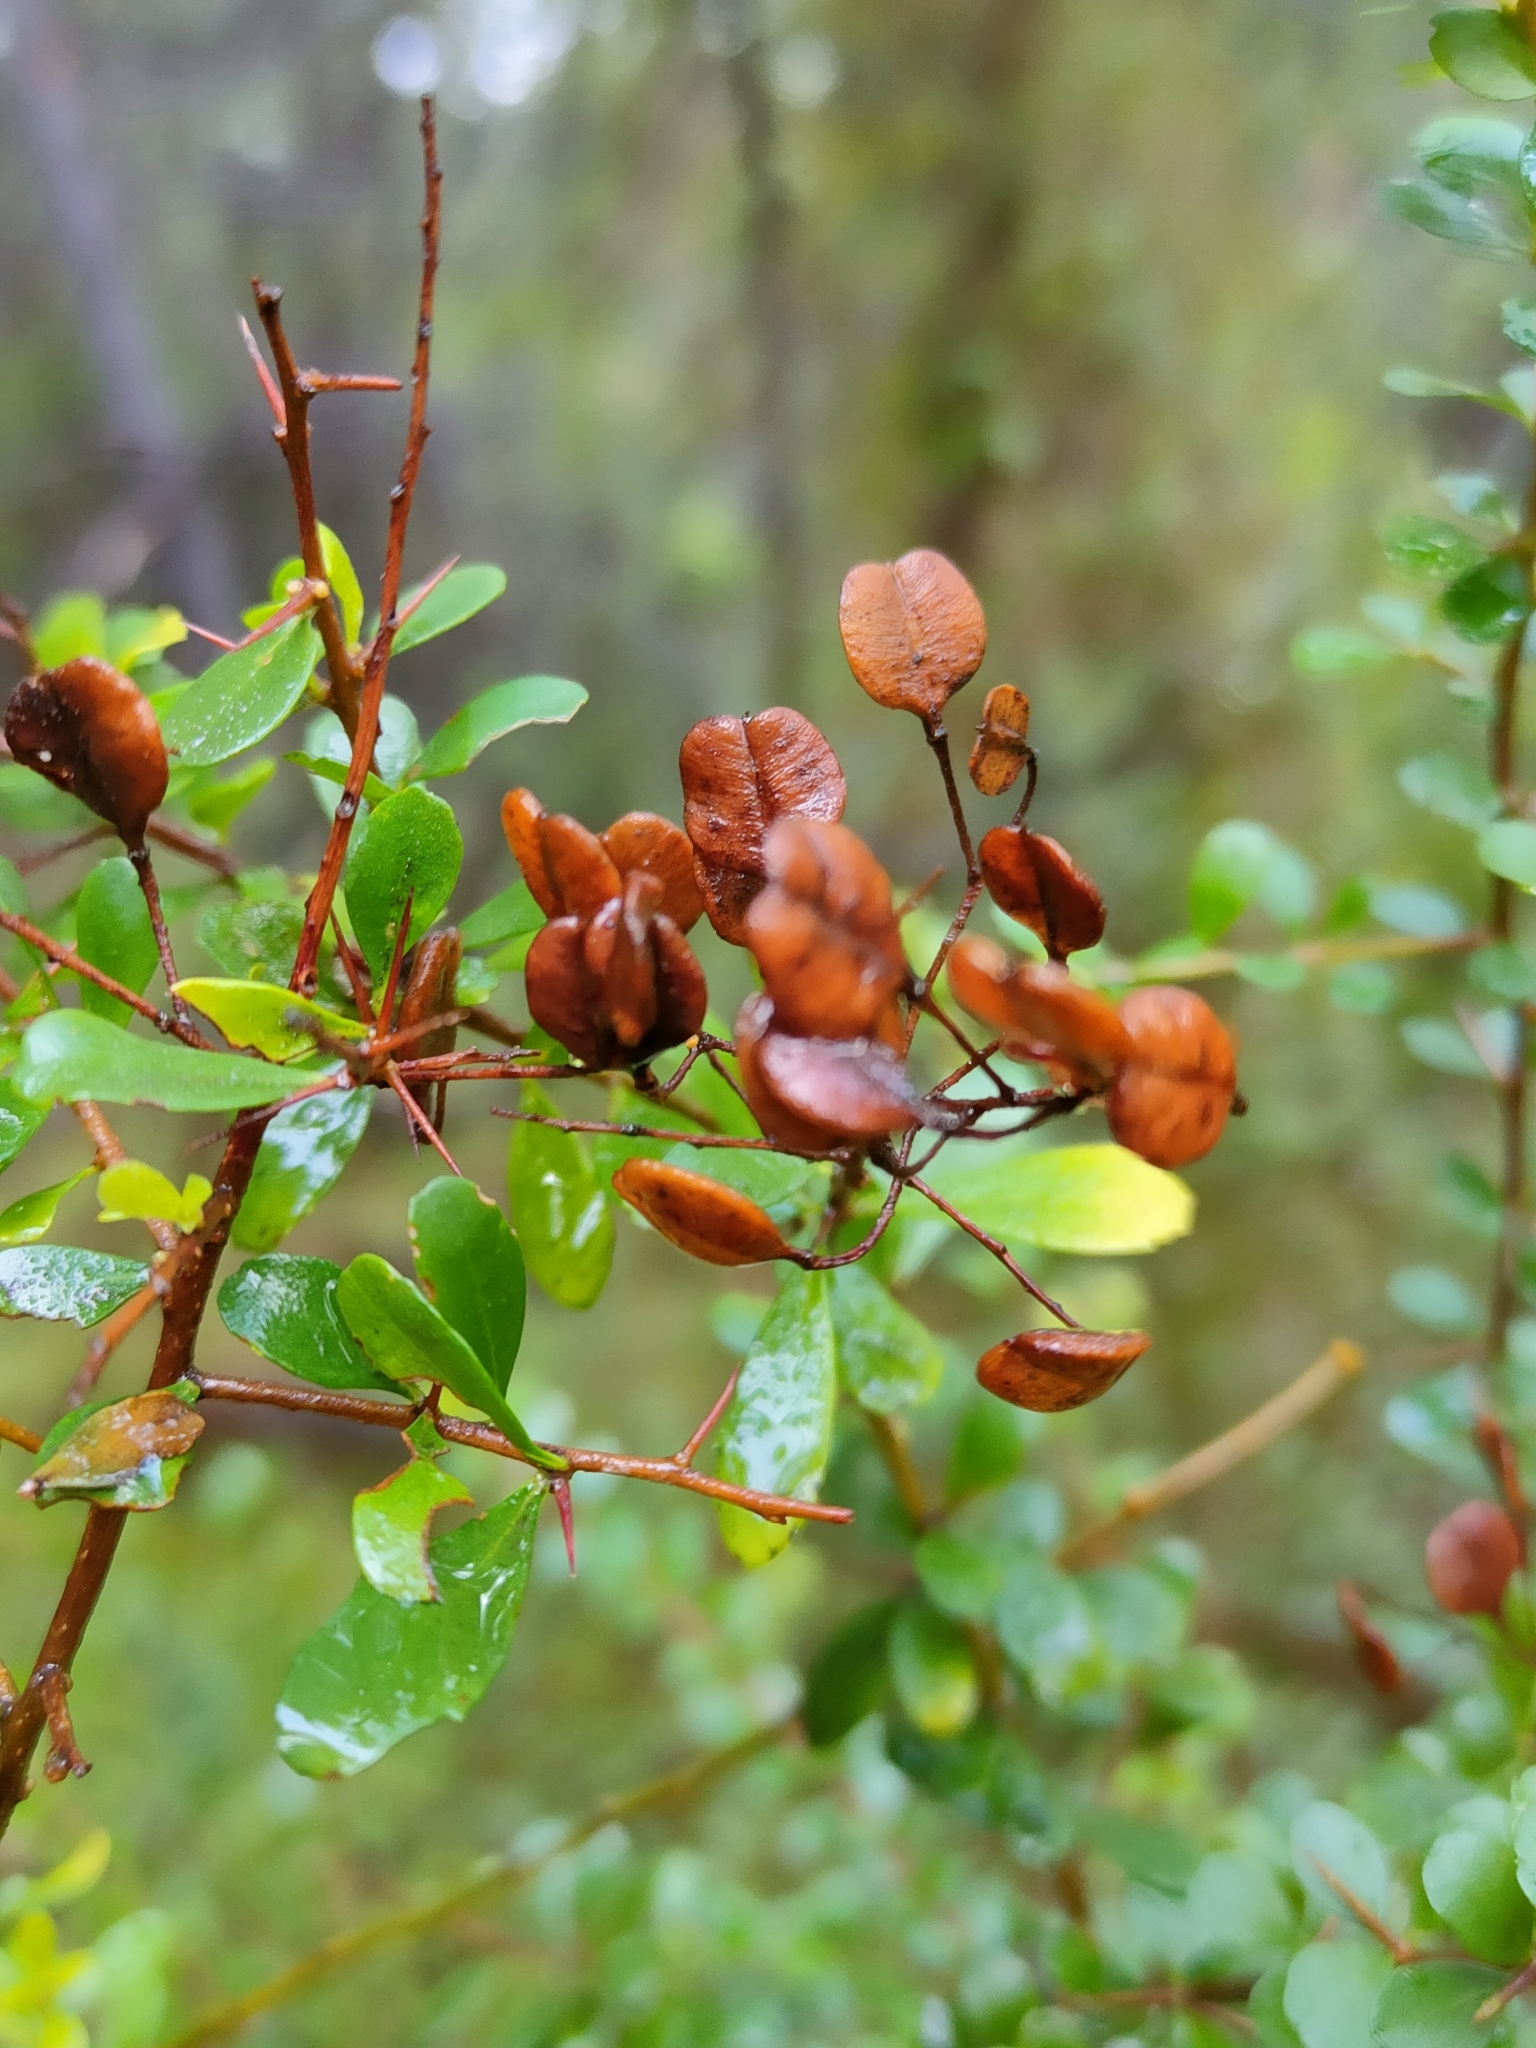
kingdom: Plantae
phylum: Tracheophyta
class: Magnoliopsida
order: Apiales
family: Pittosporaceae
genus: Bursaria
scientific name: Bursaria spinosa
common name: Australian blackthorn
